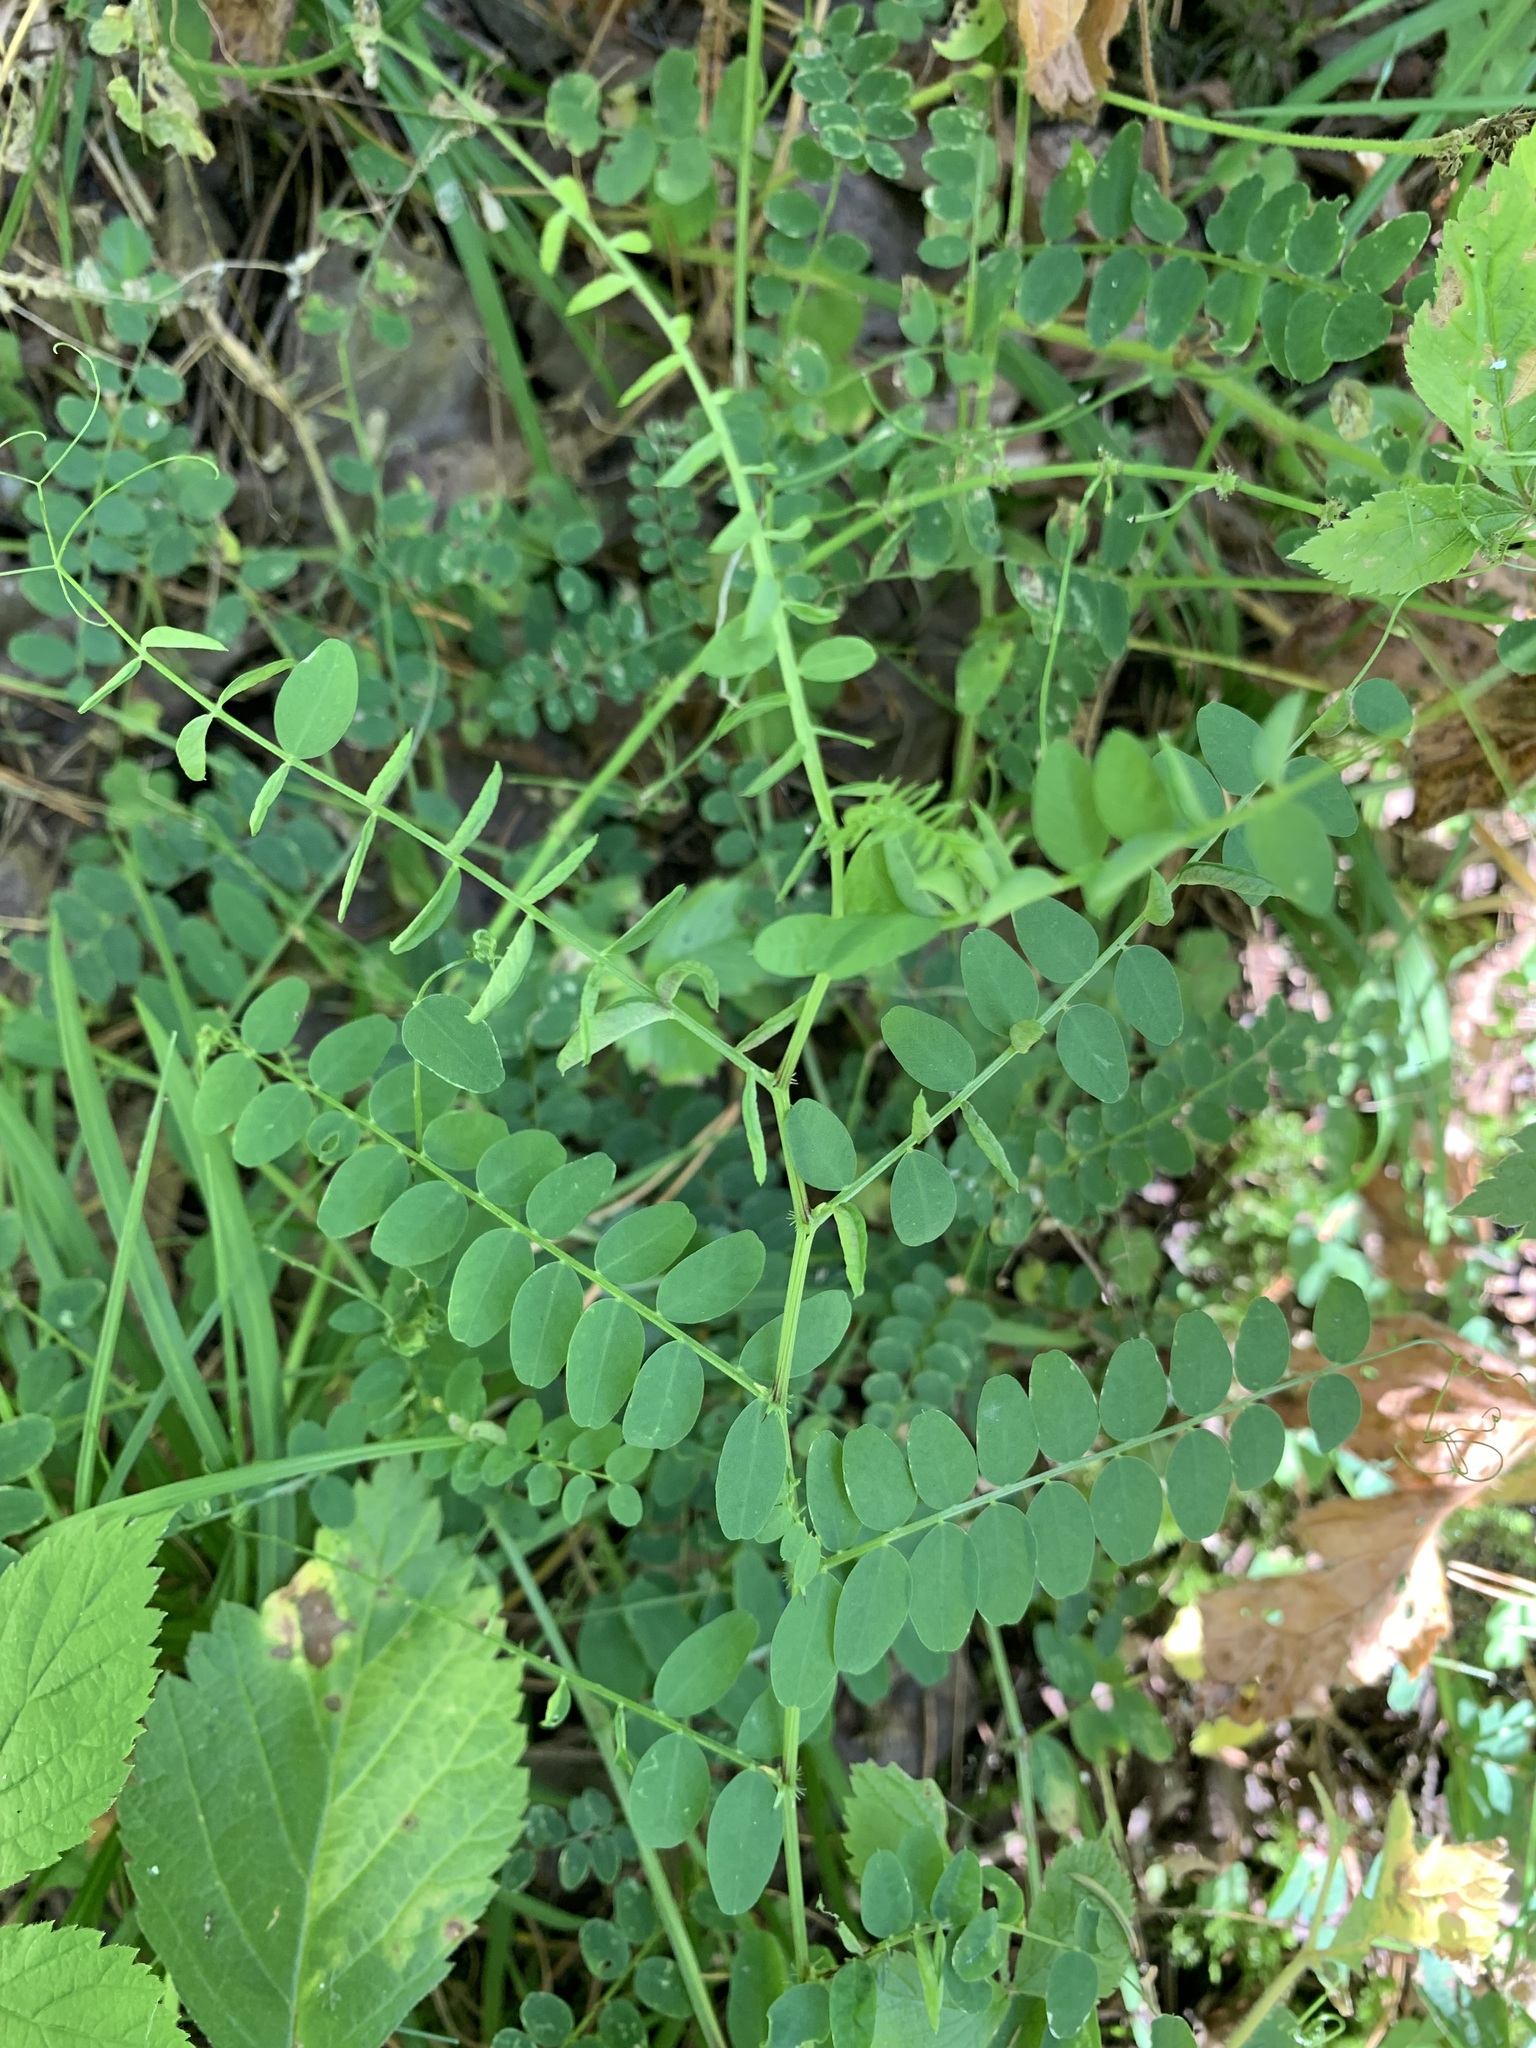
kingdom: Plantae
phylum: Tracheophyta
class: Magnoliopsida
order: Fabales
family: Fabaceae
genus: Vicia
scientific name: Vicia sylvatica
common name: Wood vetch
